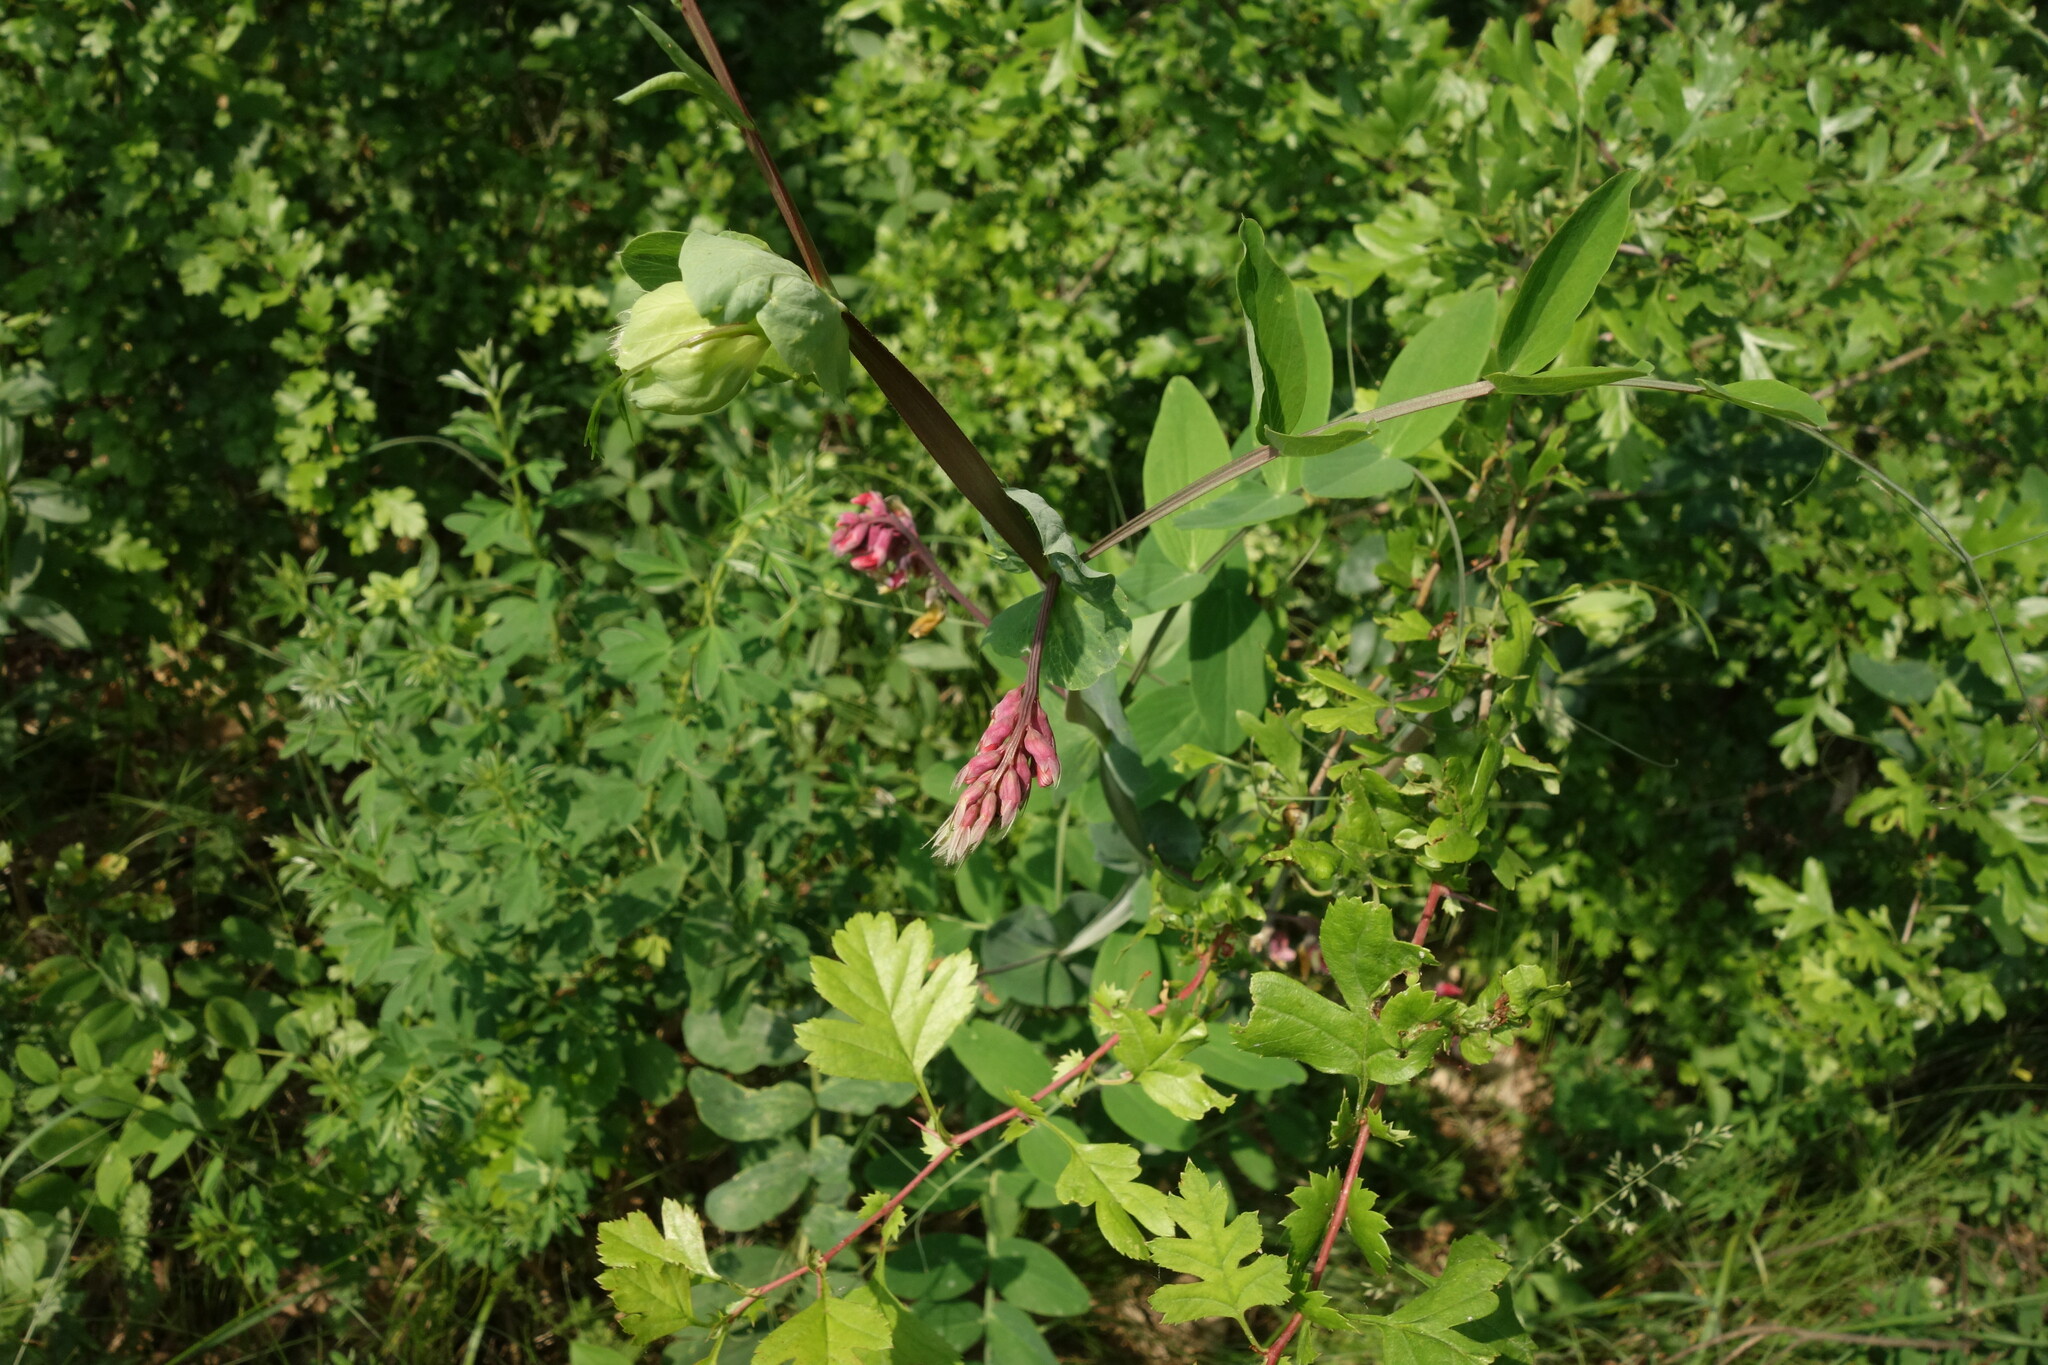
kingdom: Plantae
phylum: Tracheophyta
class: Magnoliopsida
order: Fabales
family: Fabaceae
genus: Lathyrus
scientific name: Lathyrus pisiformis
